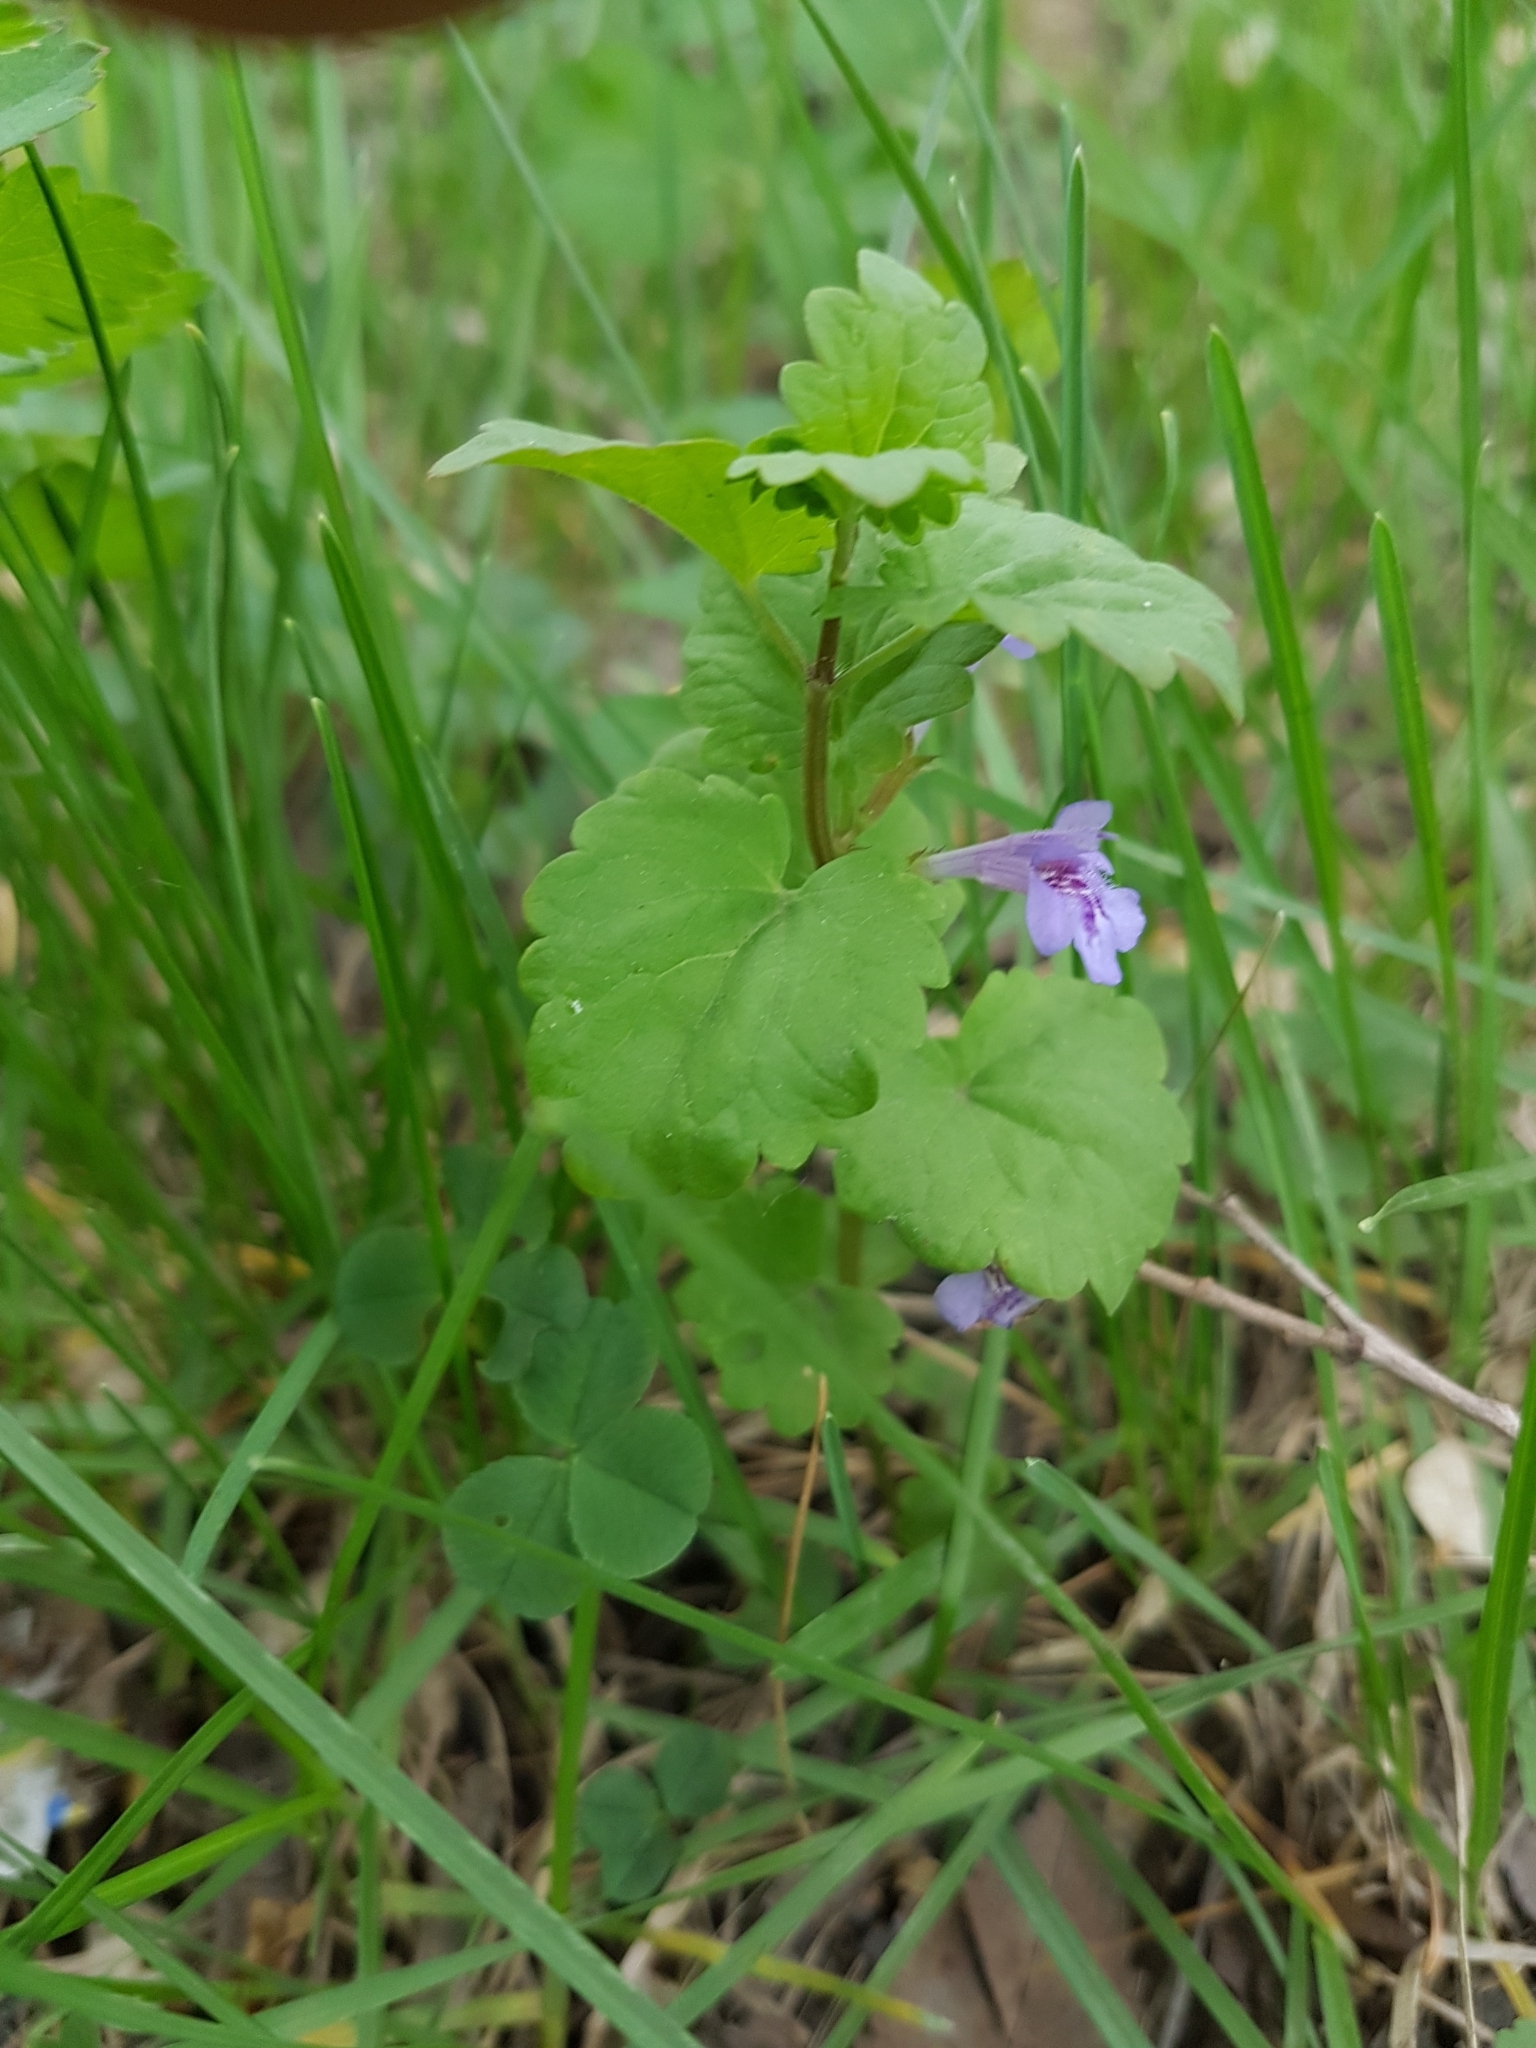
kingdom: Plantae
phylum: Tracheophyta
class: Magnoliopsida
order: Lamiales
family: Lamiaceae
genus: Glechoma
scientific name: Glechoma hederacea
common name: Ground ivy
